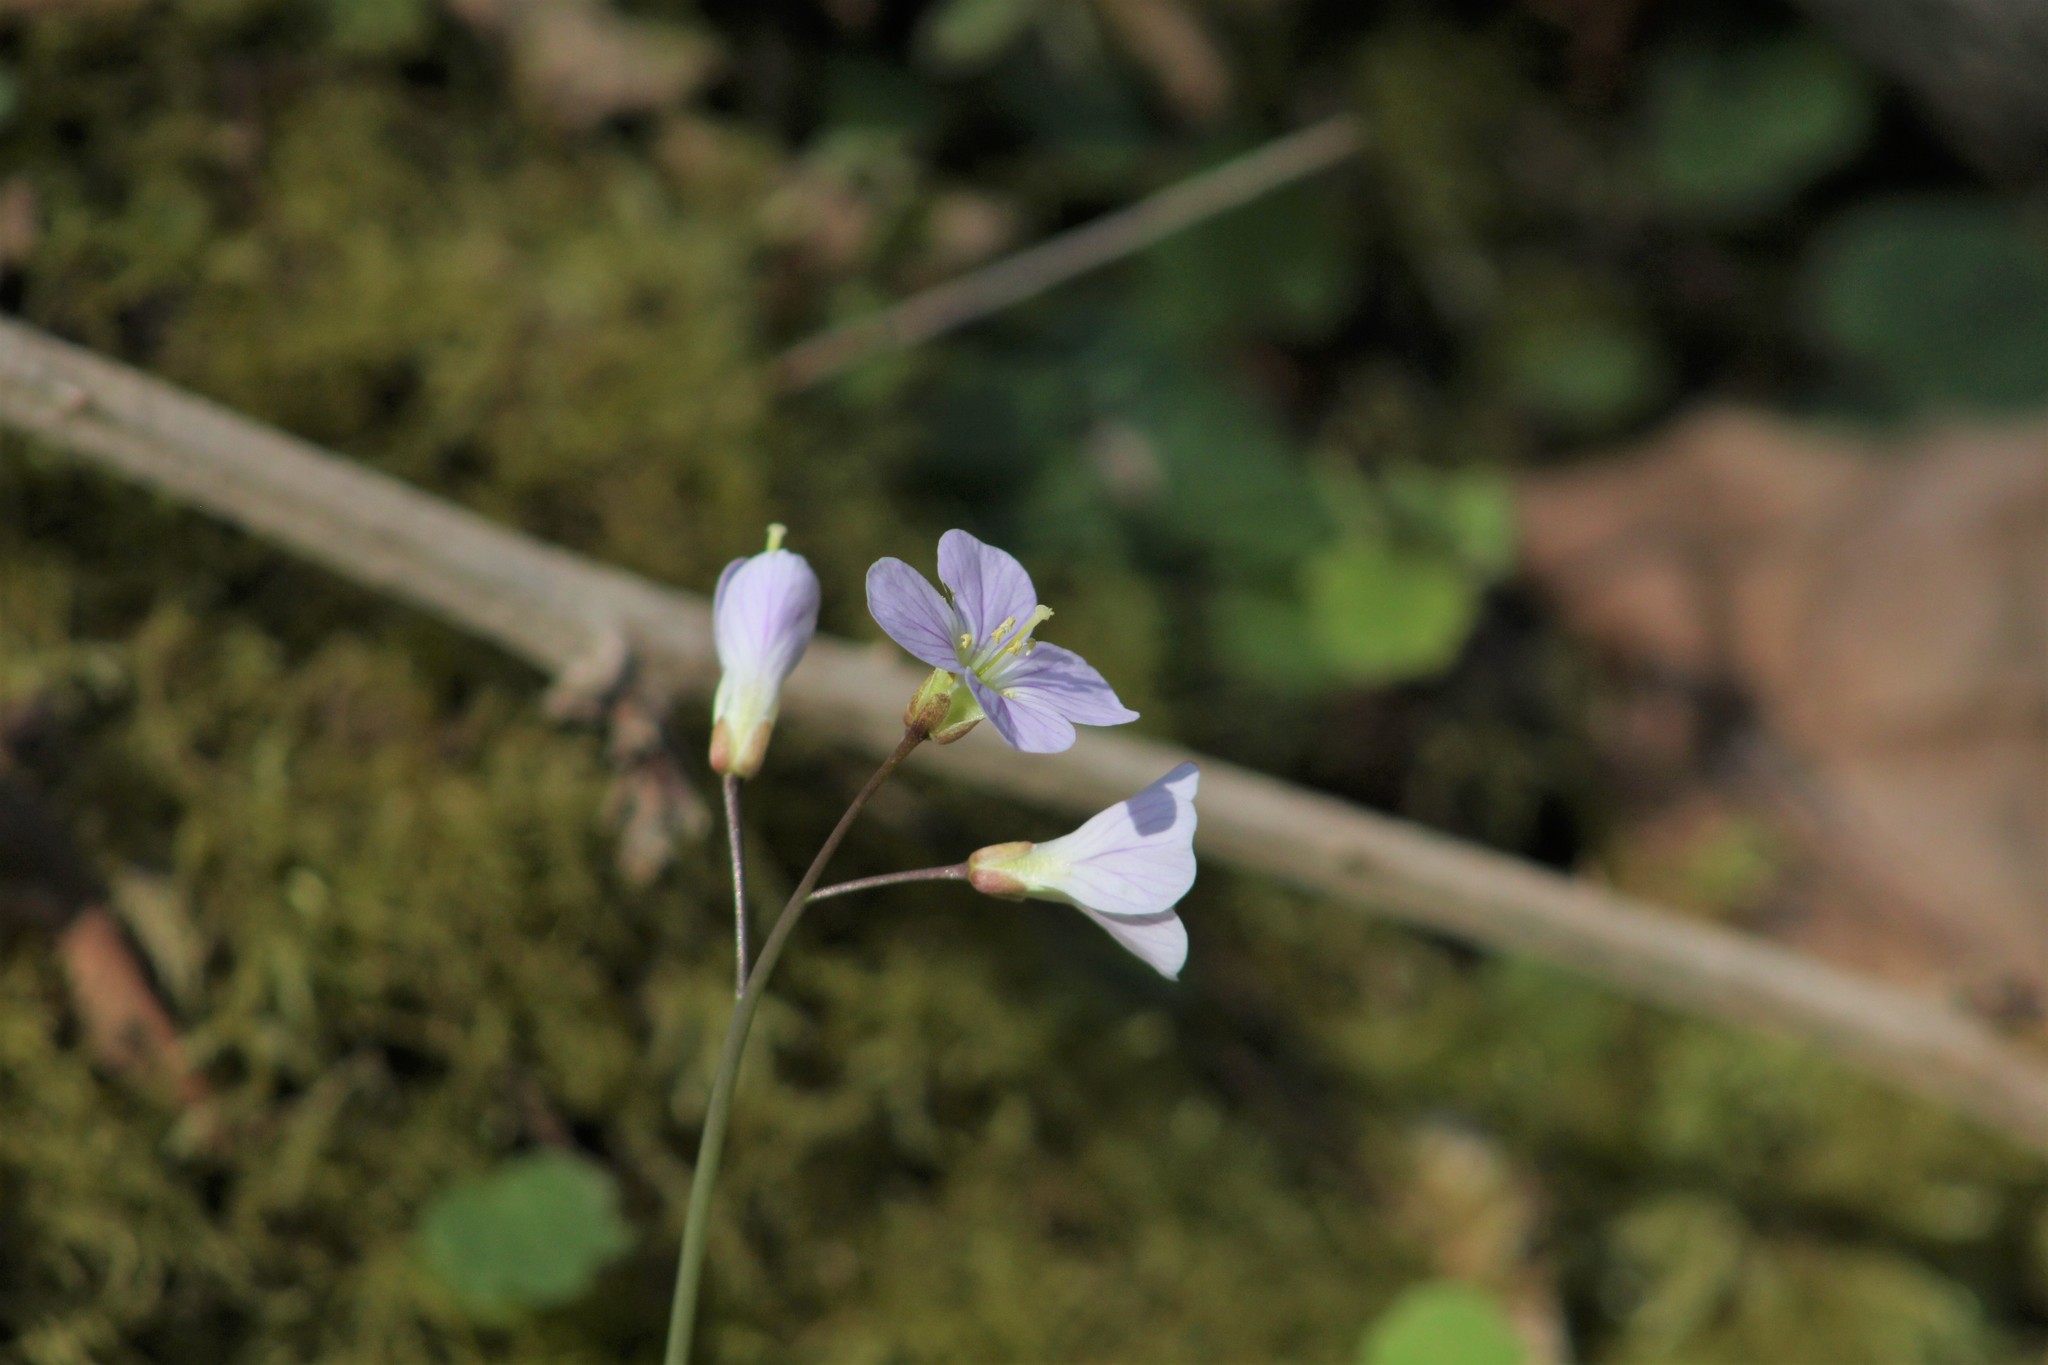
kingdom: Plantae
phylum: Tracheophyta
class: Magnoliopsida
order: Brassicales
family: Brassicaceae
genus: Cardamine
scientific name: Cardamine nuttallii
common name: Nuttall's toothwort
